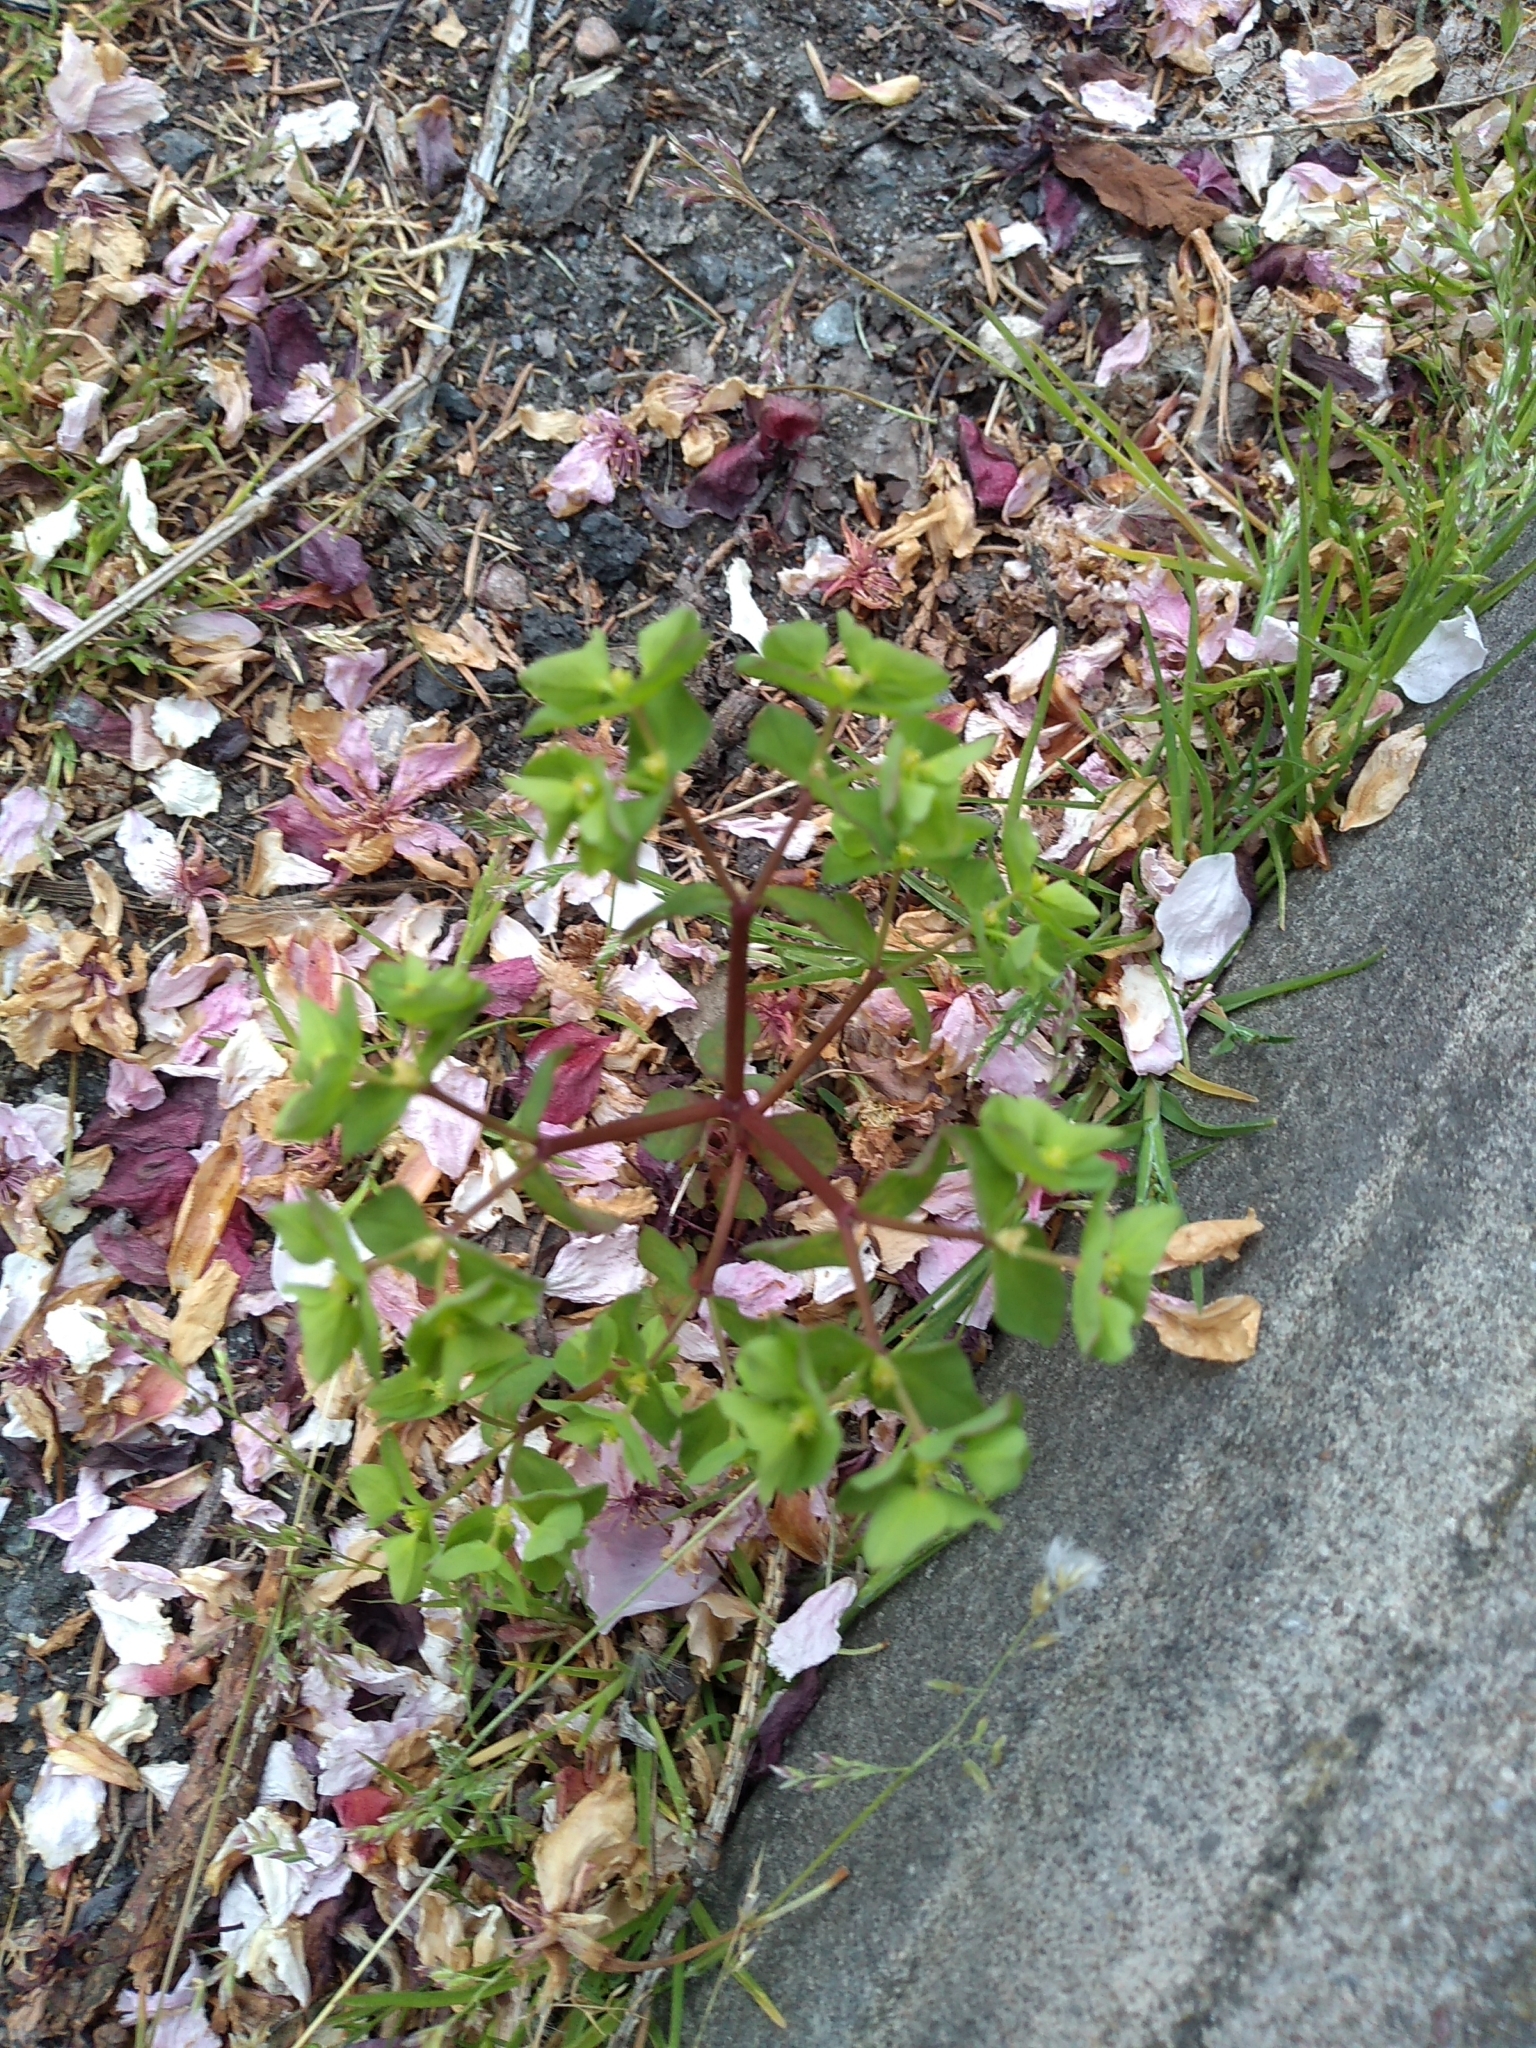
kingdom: Plantae
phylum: Tracheophyta
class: Magnoliopsida
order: Malpighiales
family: Euphorbiaceae
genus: Euphorbia
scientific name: Euphorbia peplus
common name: Petty spurge
